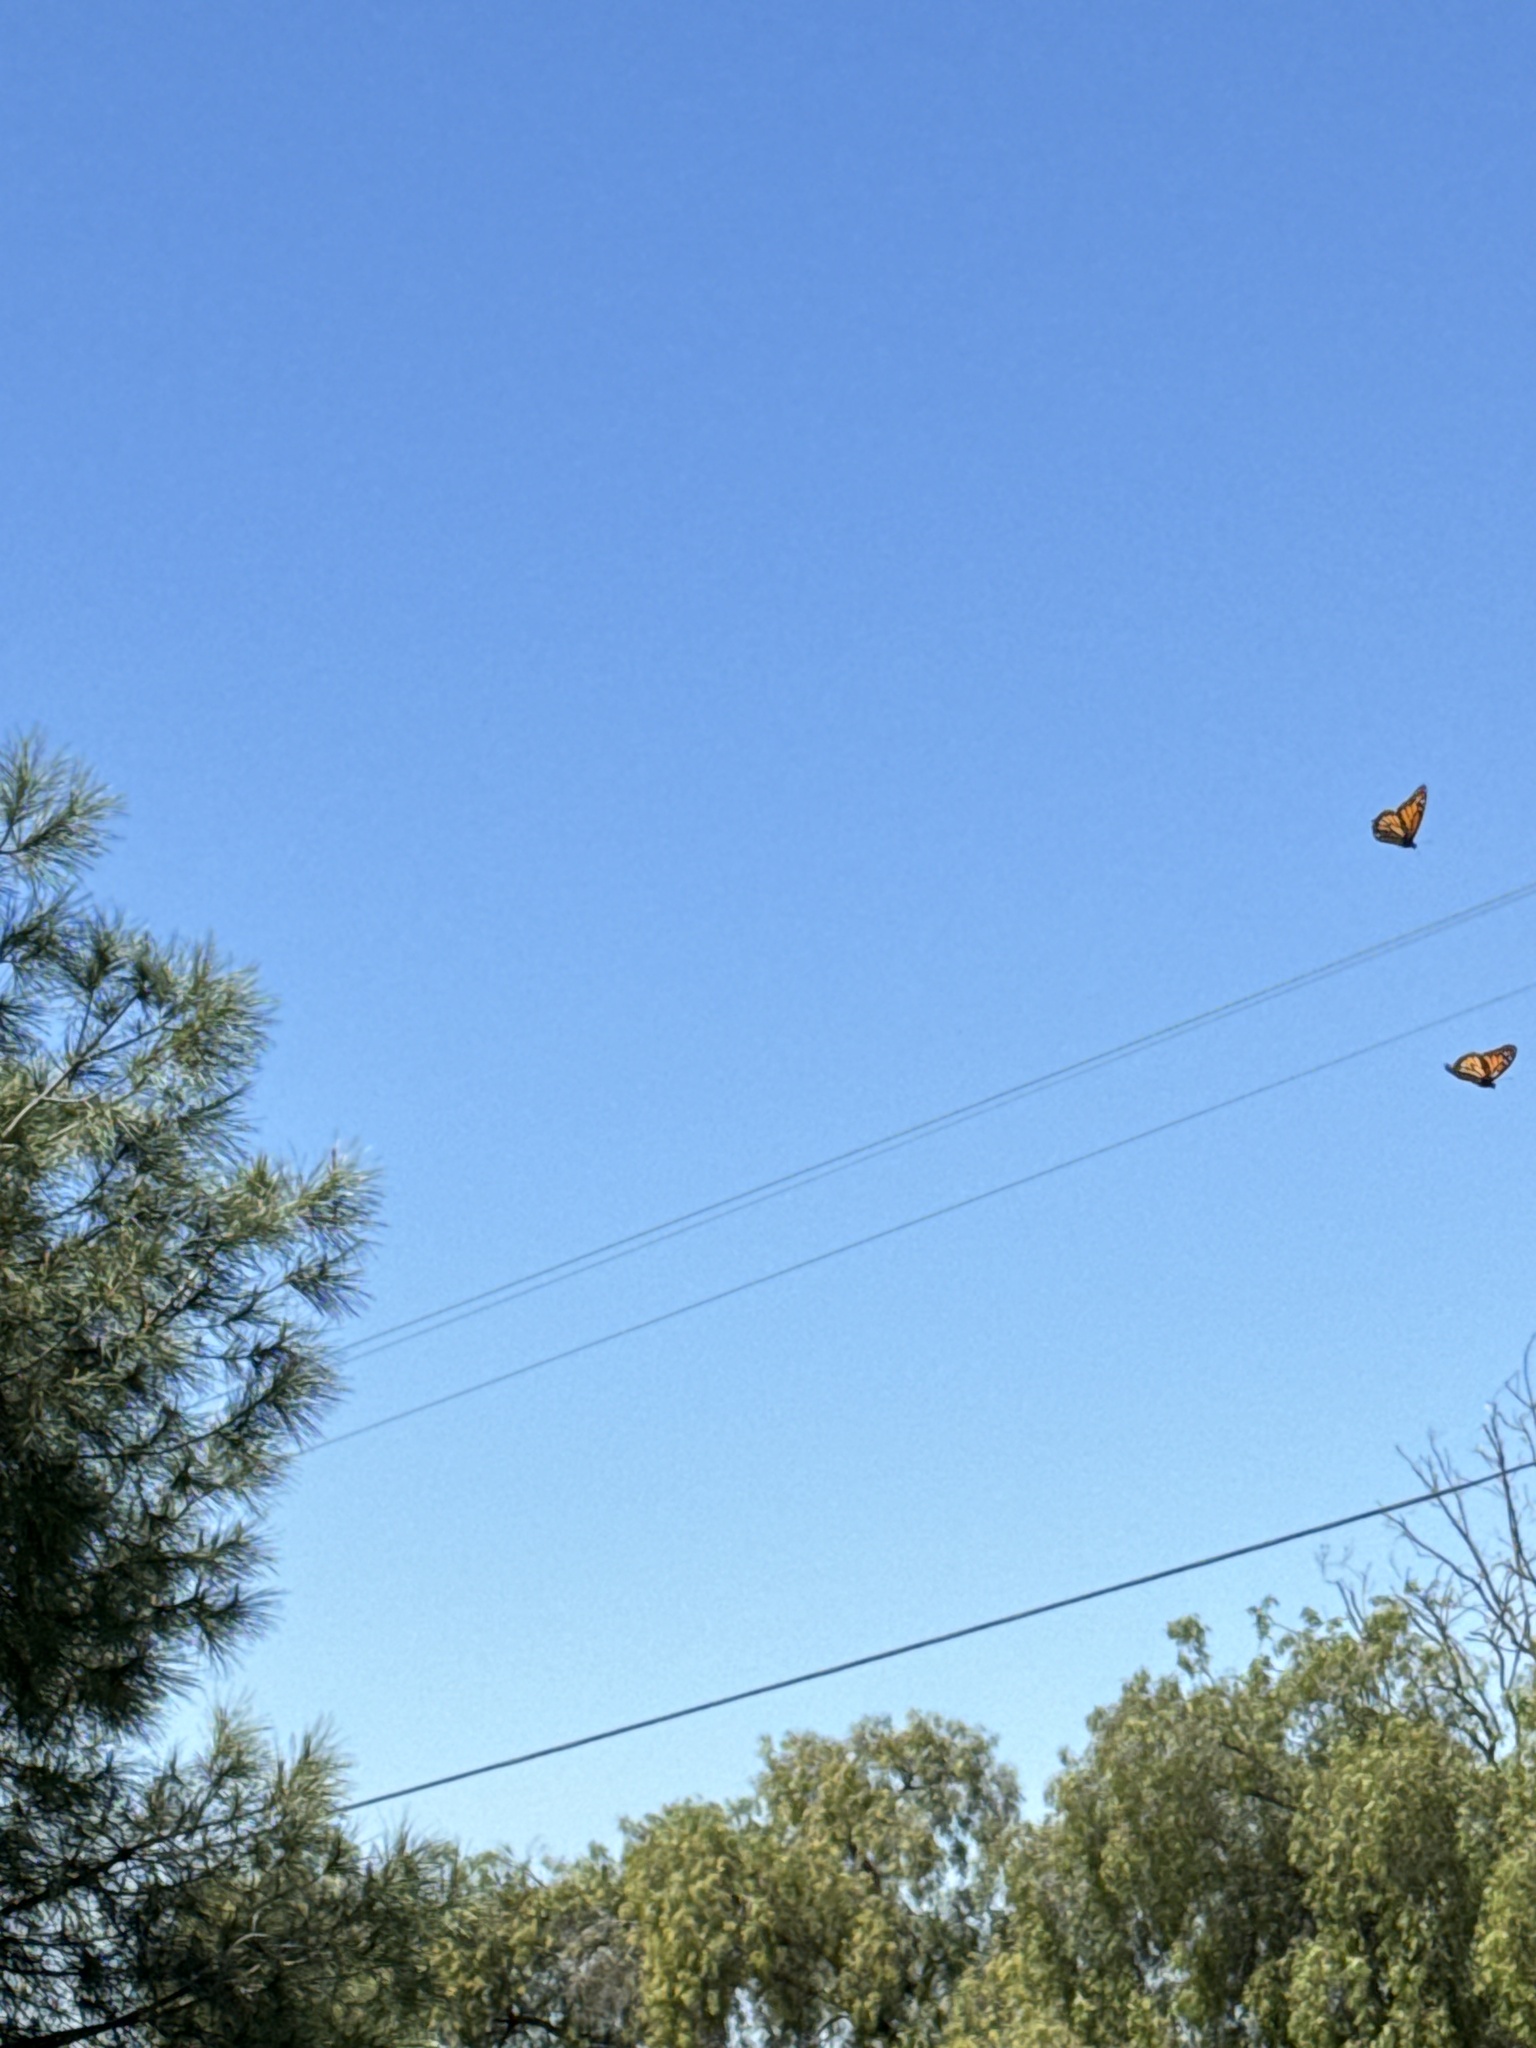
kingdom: Animalia
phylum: Arthropoda
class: Insecta
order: Lepidoptera
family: Nymphalidae
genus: Danaus
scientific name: Danaus plexippus
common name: Monarch
